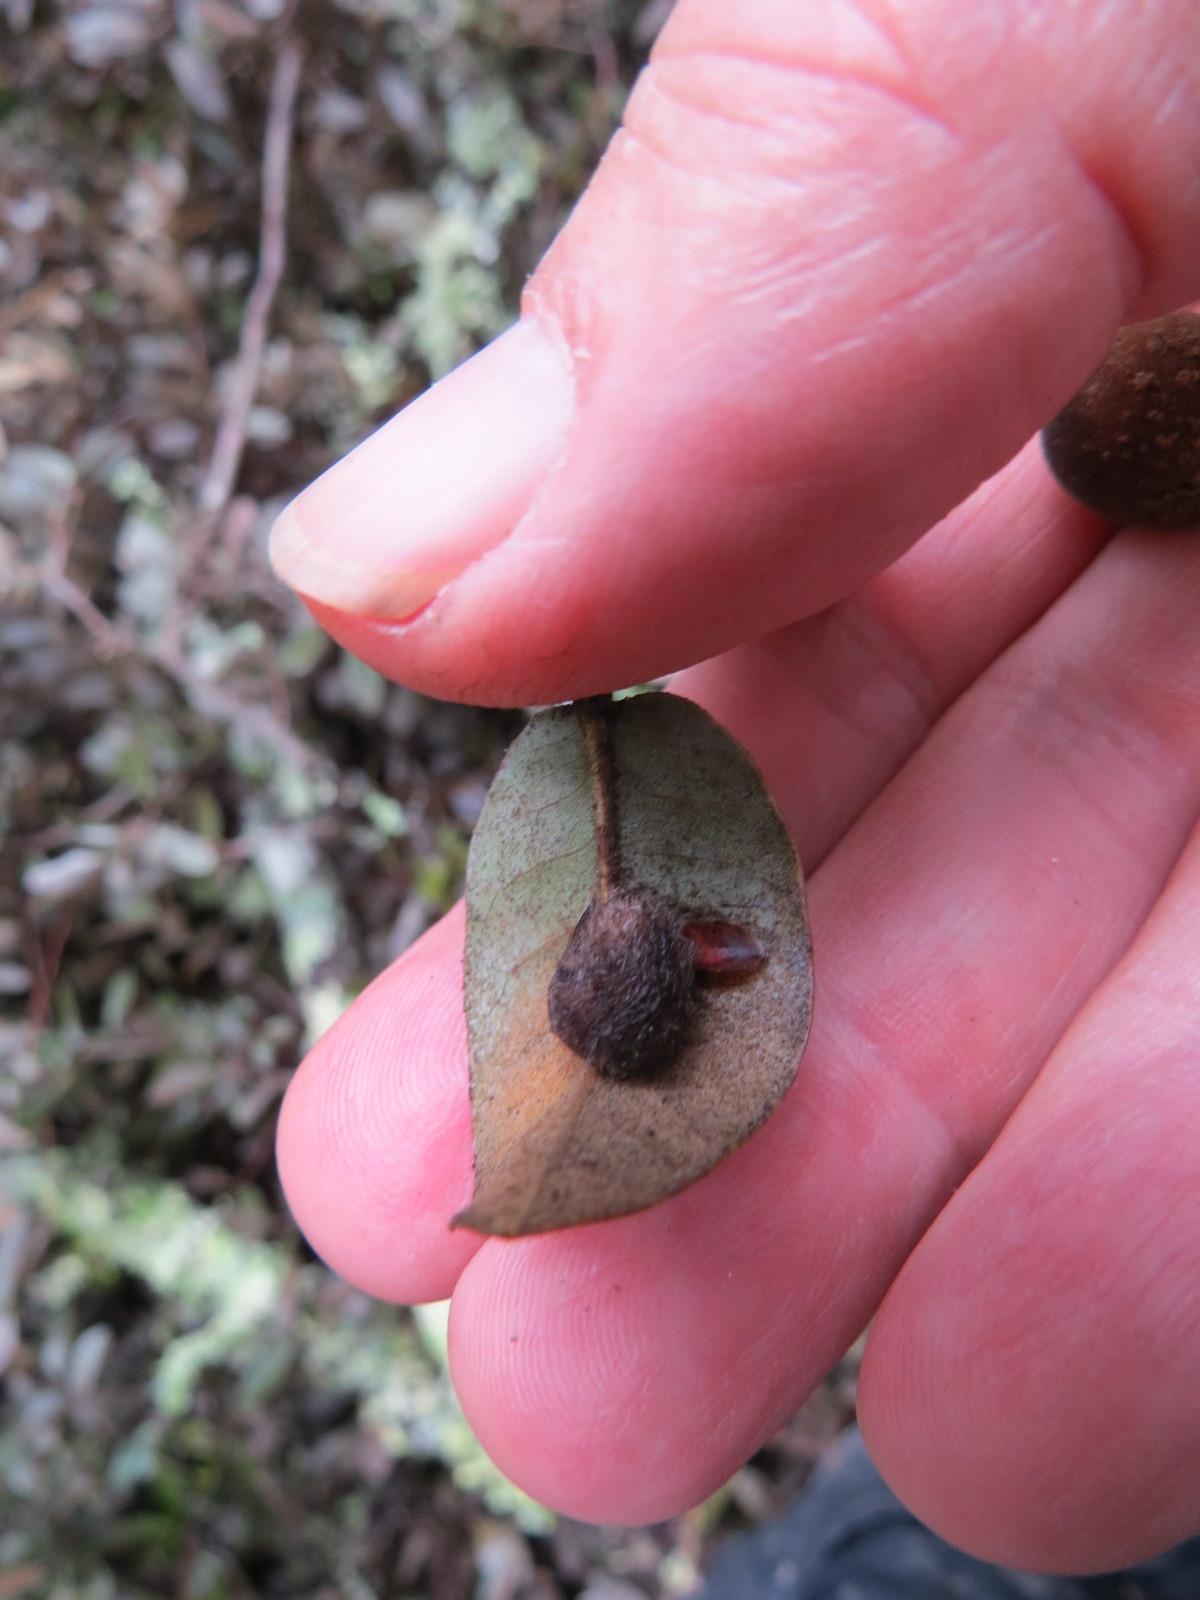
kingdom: Animalia
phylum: Arthropoda
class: Insecta
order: Hymenoptera
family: Cynipidae
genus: Disholandricus
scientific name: Disholandricus
